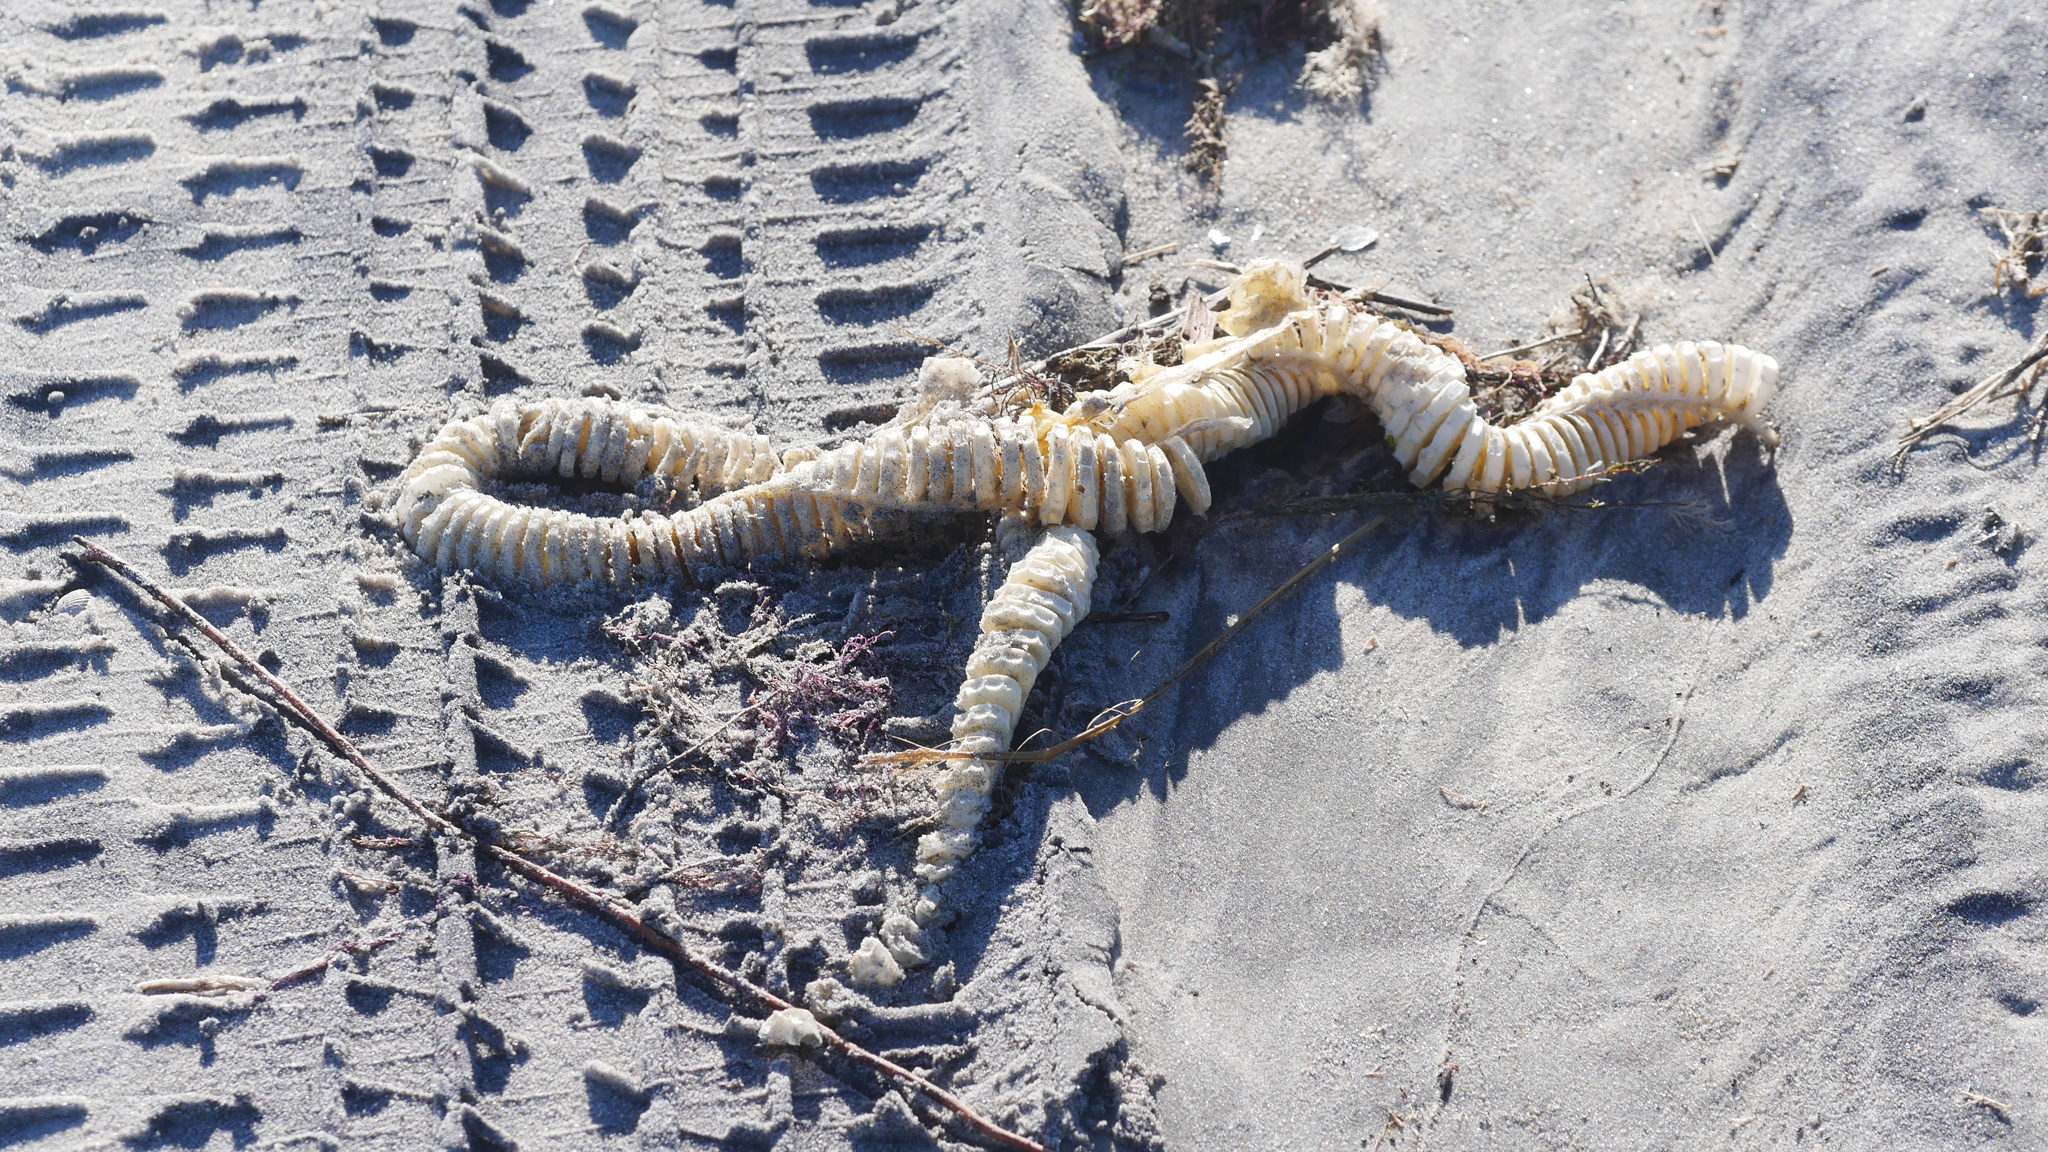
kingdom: Animalia
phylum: Mollusca
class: Gastropoda
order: Neogastropoda
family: Busyconidae
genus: Busycon
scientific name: Busycon carica
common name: Knobbed whelk
